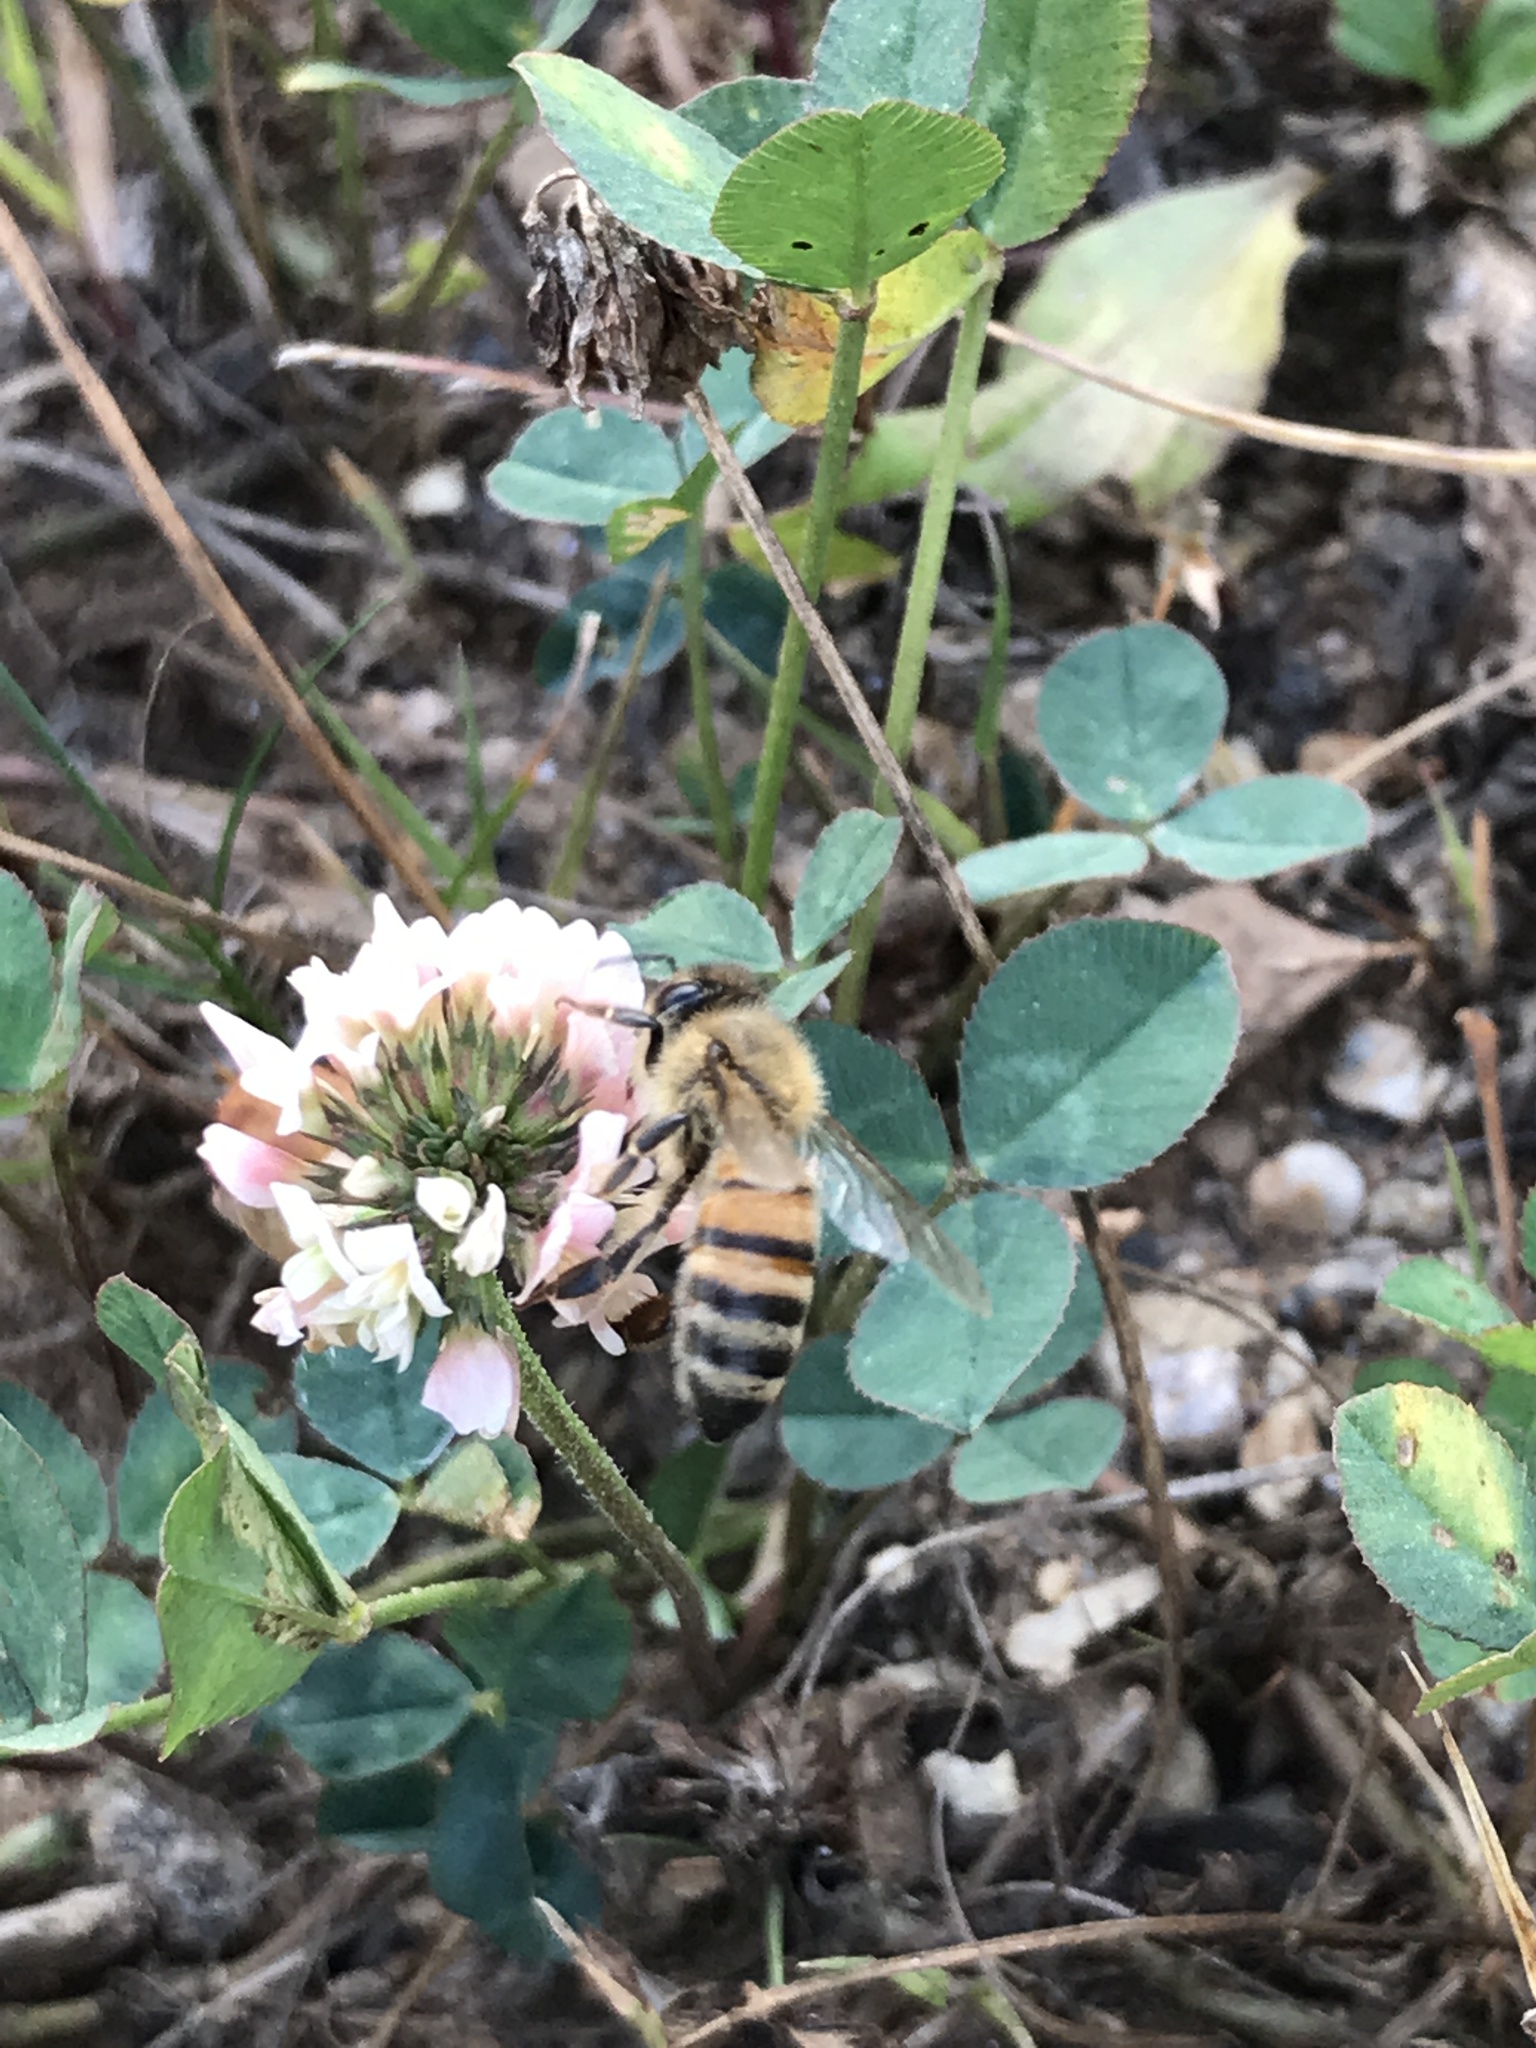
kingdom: Animalia
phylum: Arthropoda
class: Insecta
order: Hymenoptera
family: Apidae
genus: Apis
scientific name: Apis mellifera
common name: Honey bee
